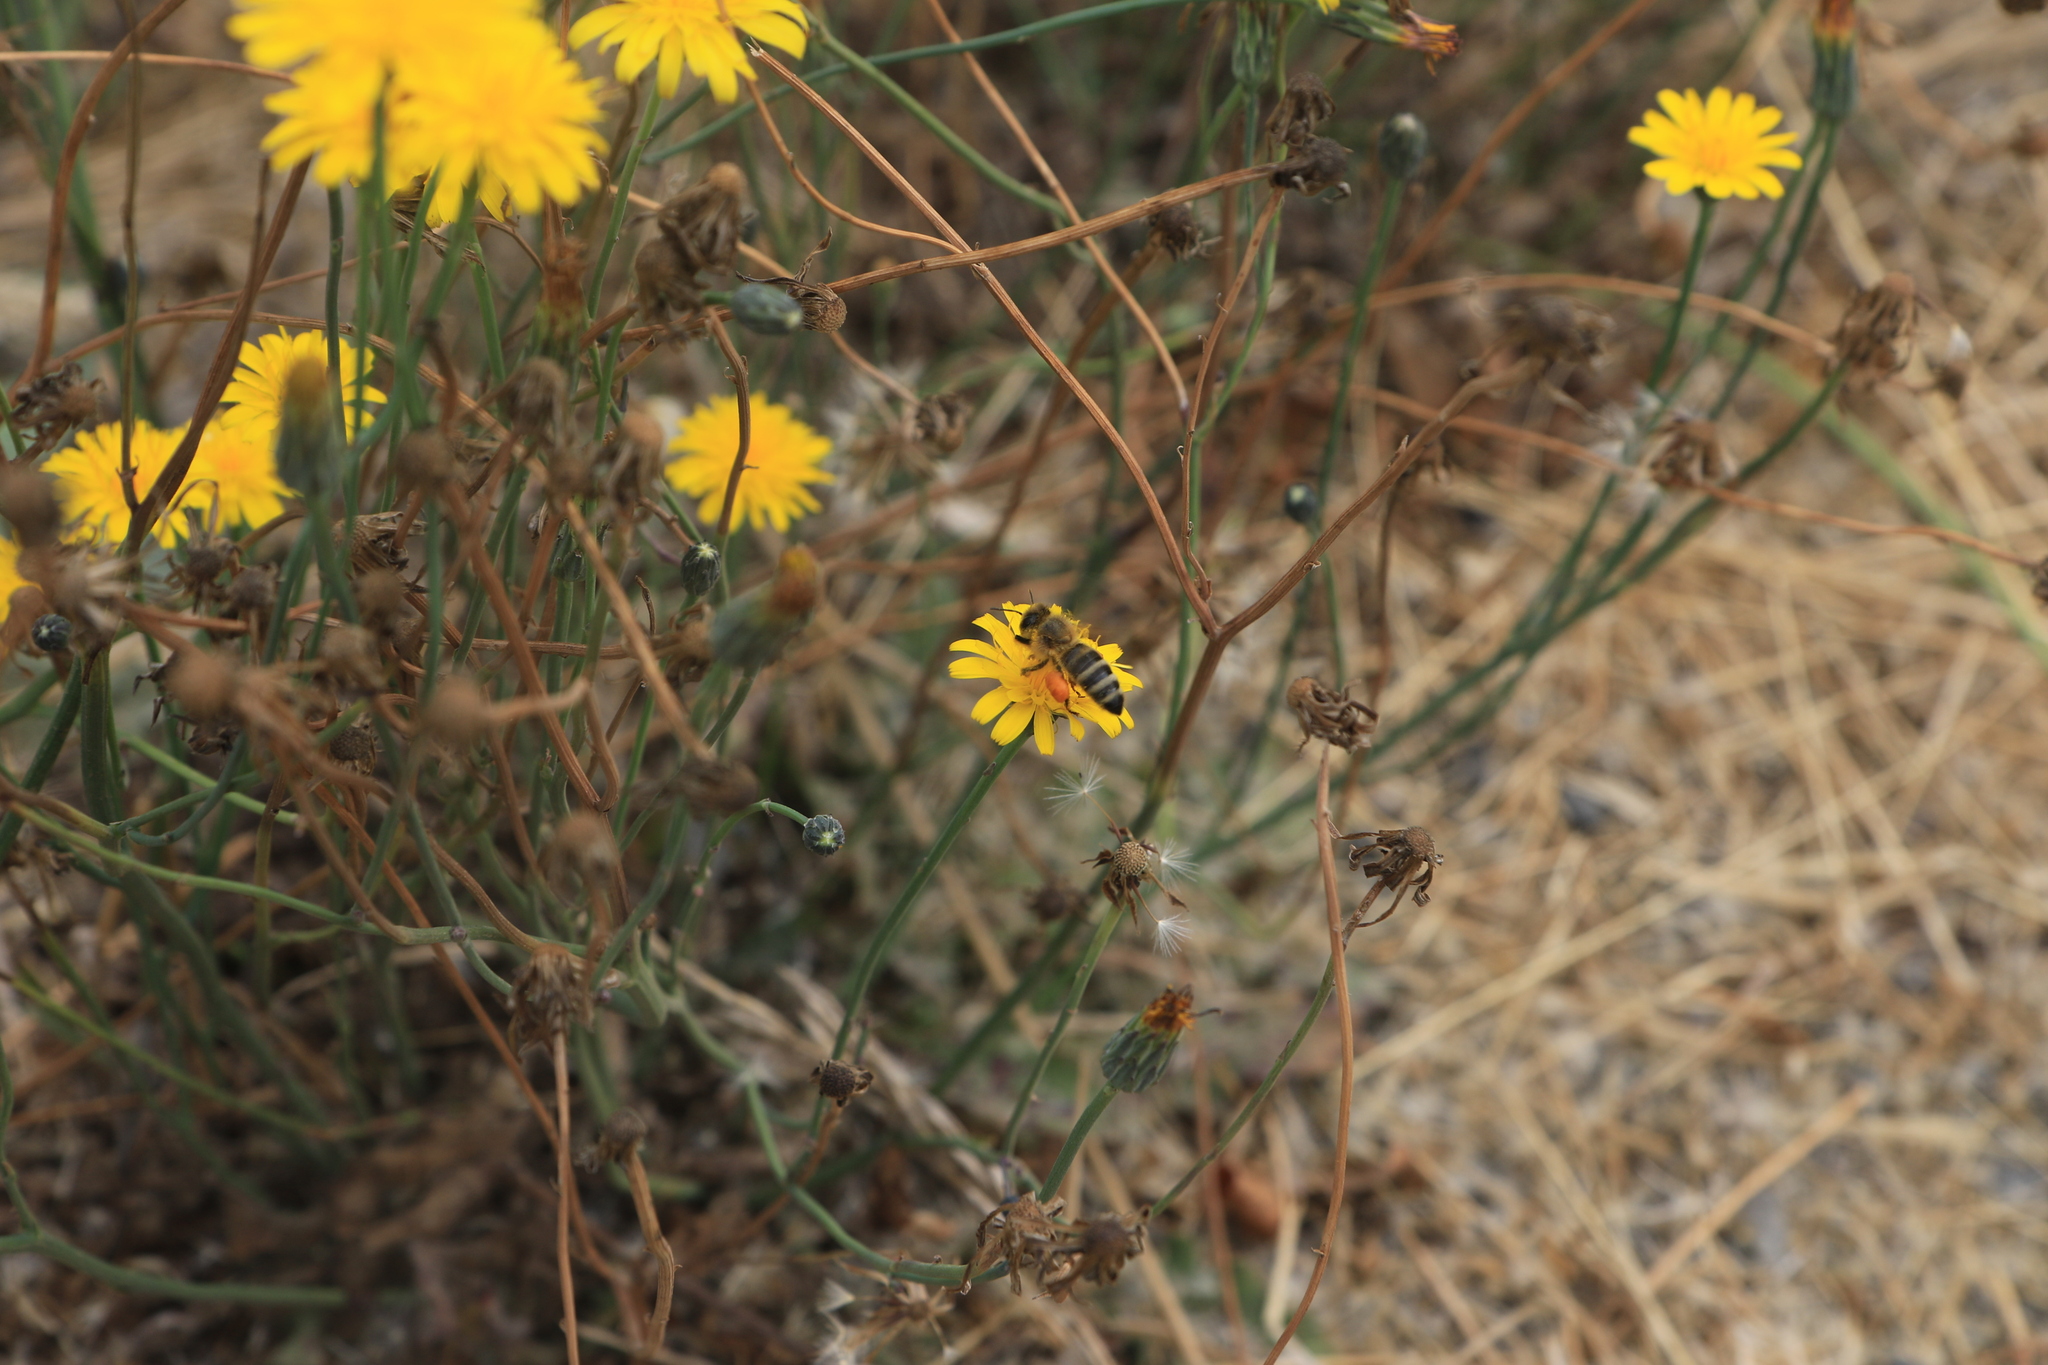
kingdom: Animalia
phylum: Arthropoda
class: Insecta
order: Hymenoptera
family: Apidae
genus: Apis
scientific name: Apis mellifera
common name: Honey bee
